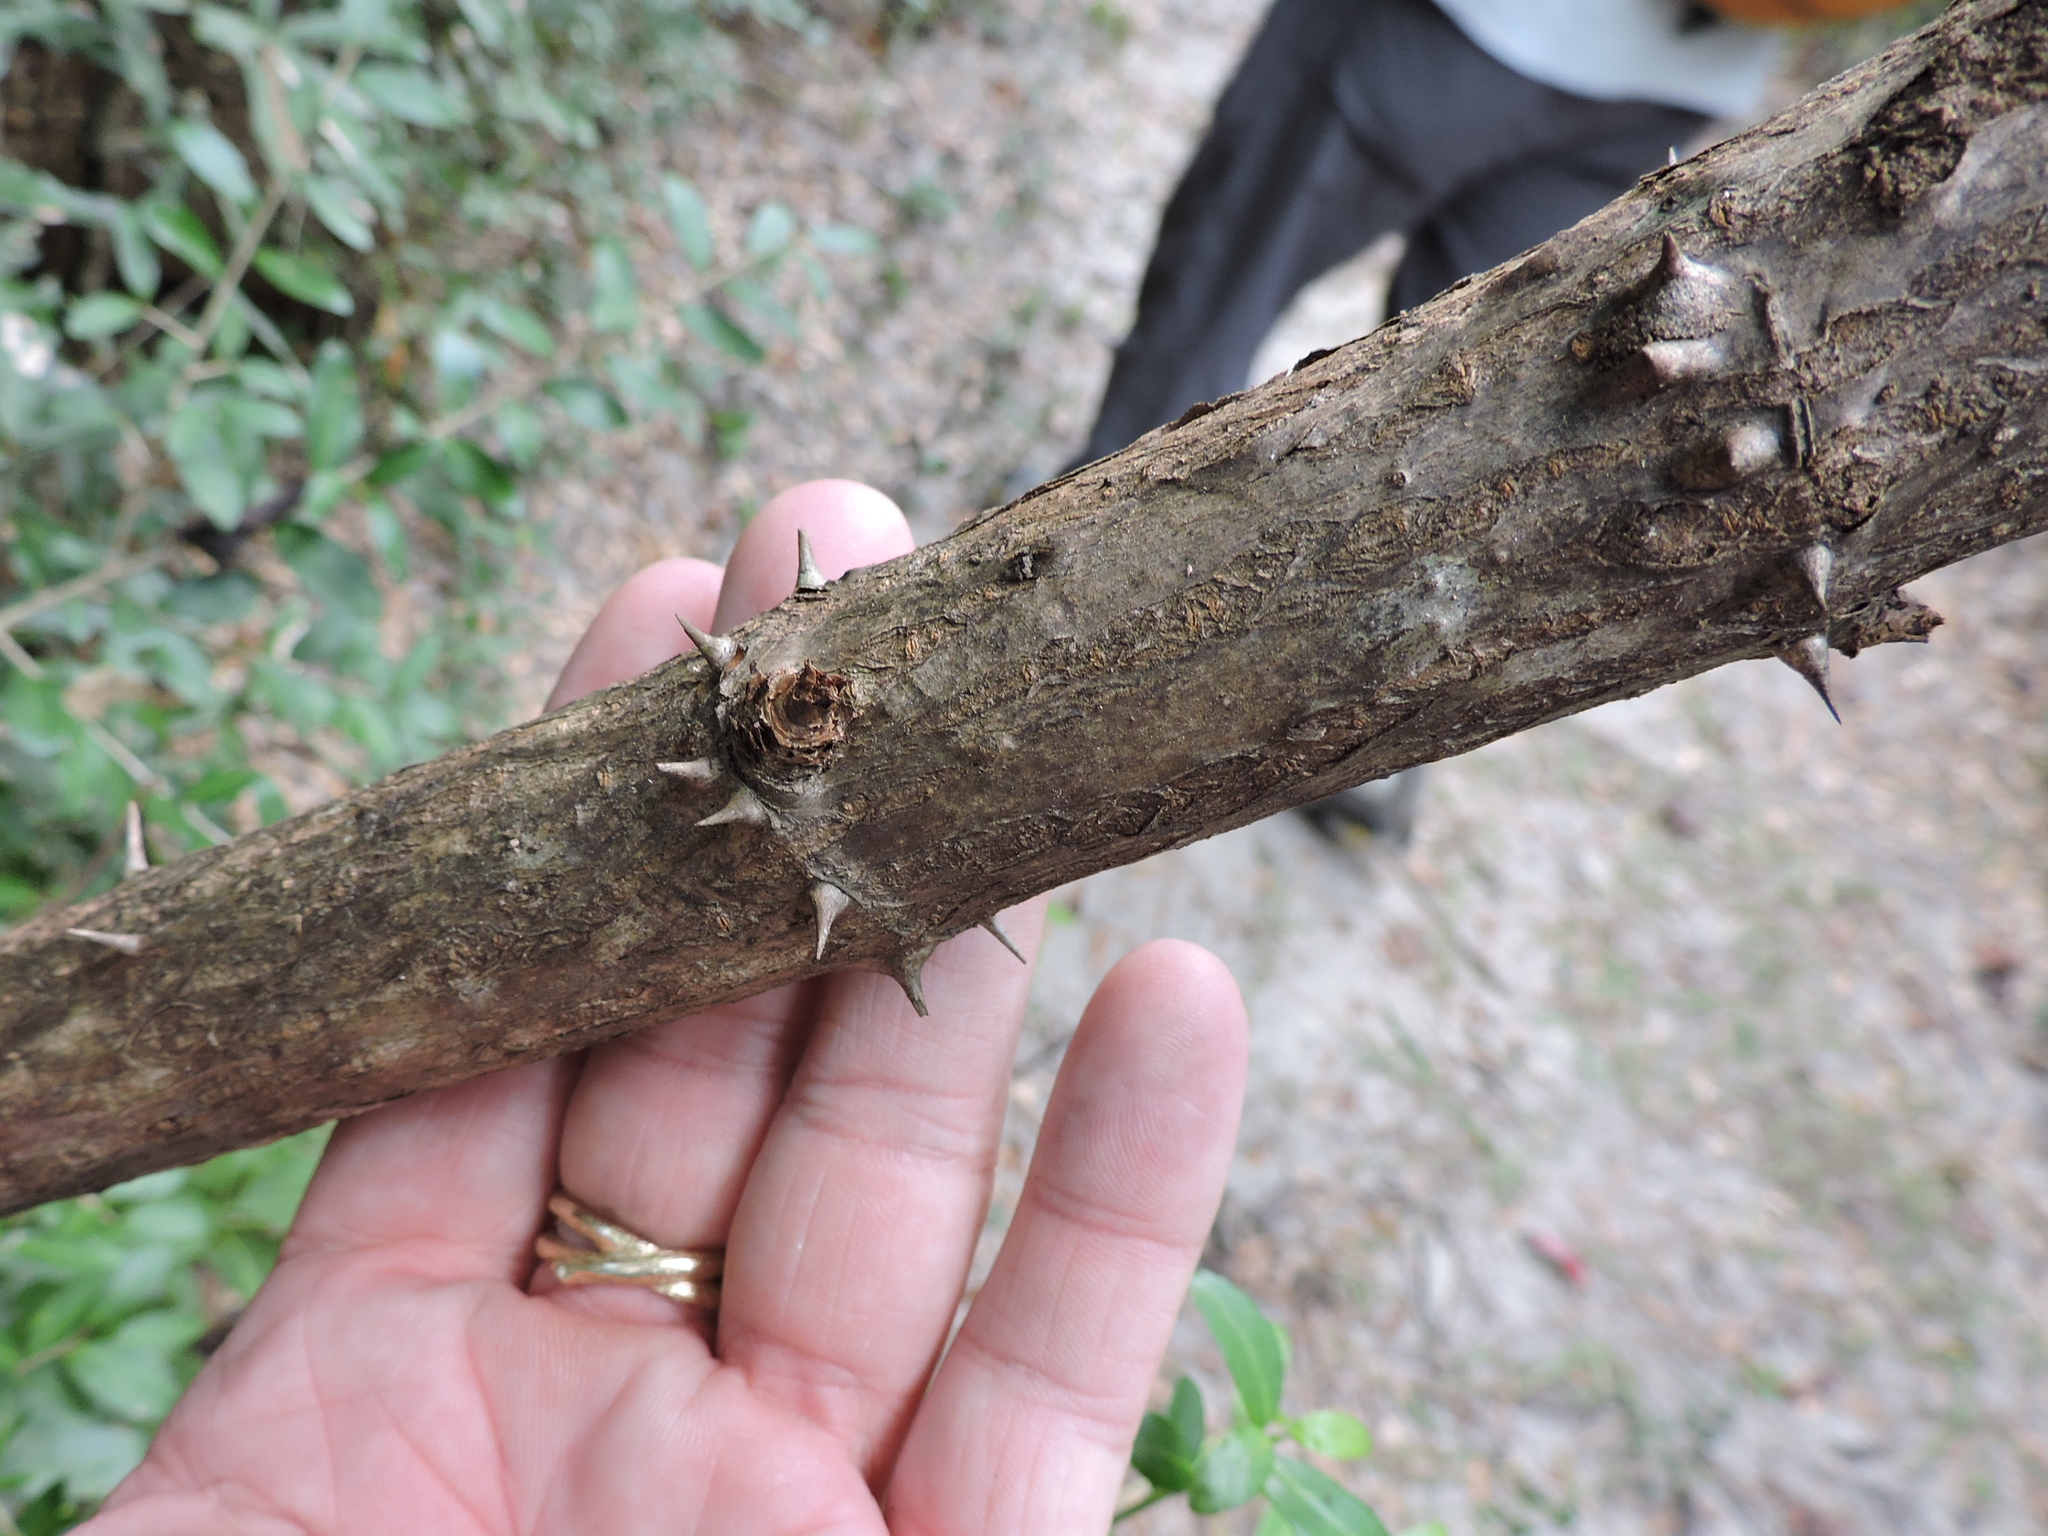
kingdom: Plantae
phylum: Tracheophyta
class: Magnoliopsida
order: Apiales
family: Araliaceae
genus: Aralia
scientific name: Aralia spinosa
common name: Hercules'-club
